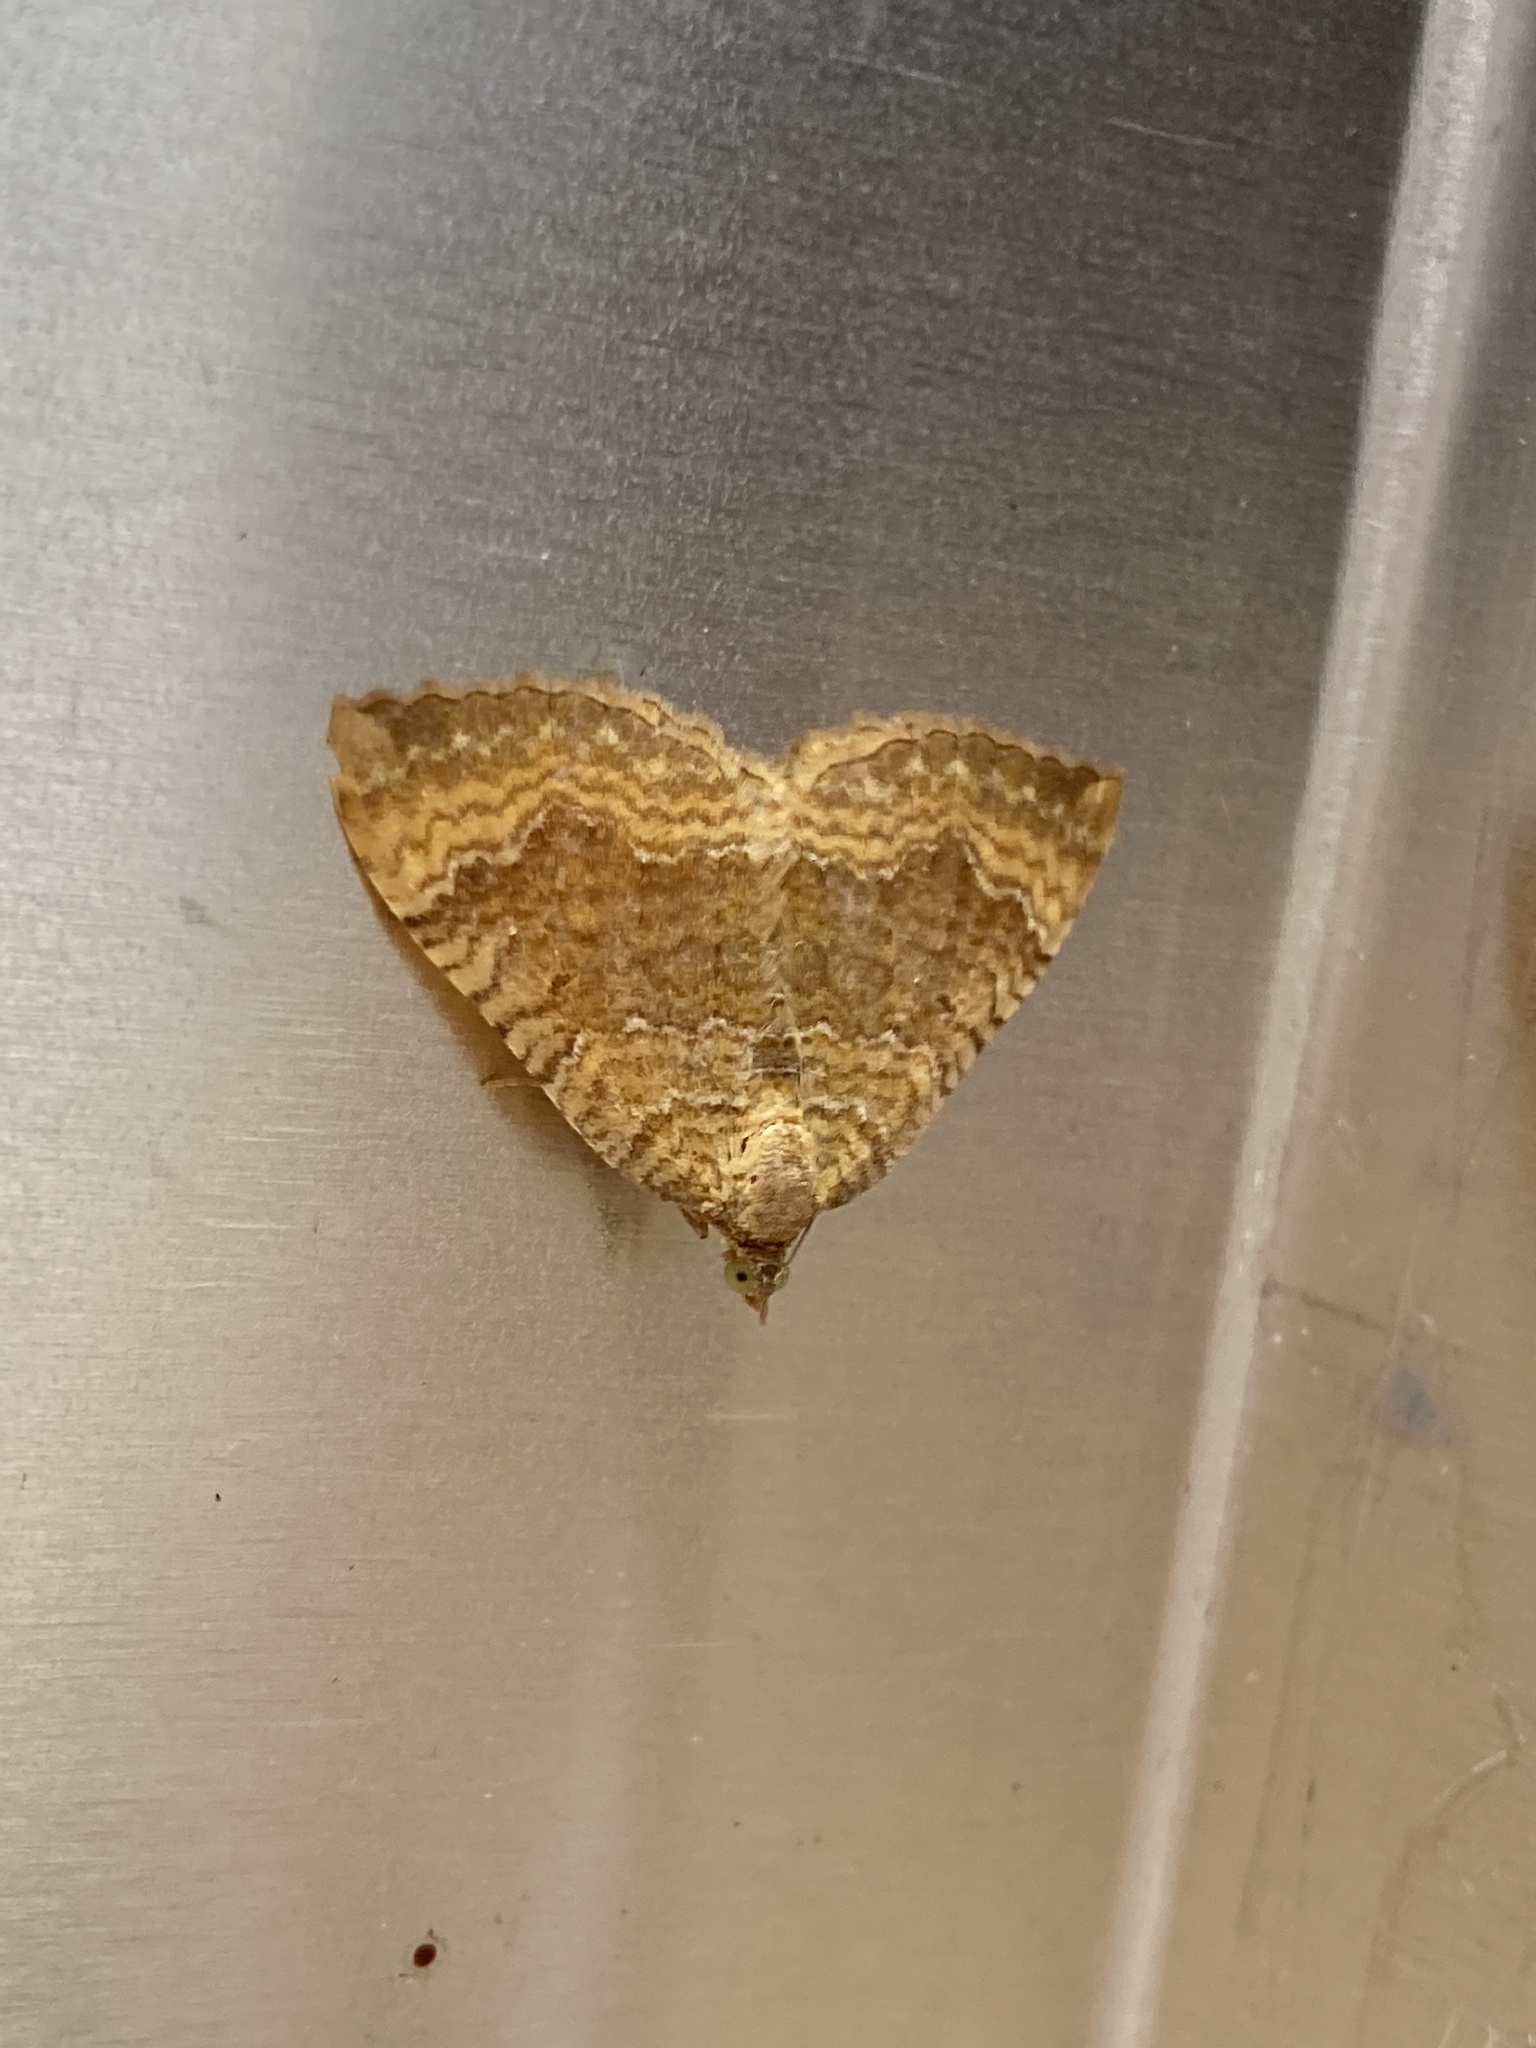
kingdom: Animalia
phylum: Arthropoda
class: Insecta
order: Lepidoptera
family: Geometridae
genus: Camptogramma
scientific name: Camptogramma bilineata
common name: Yellow shell
